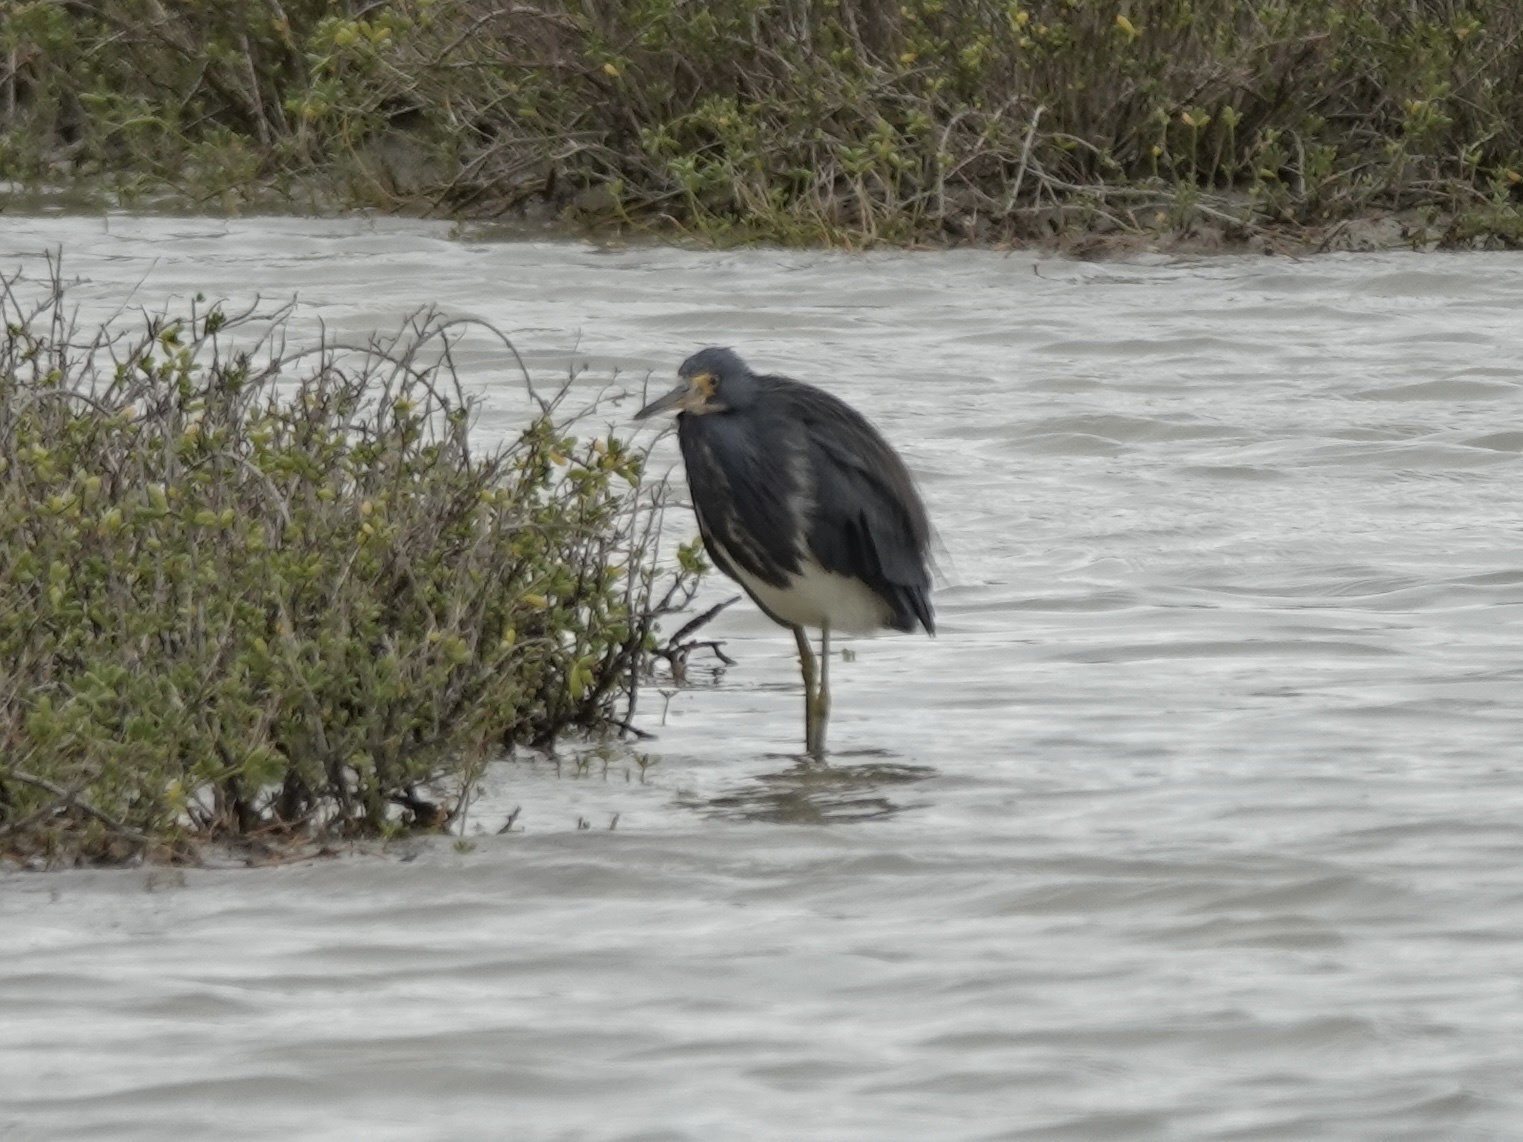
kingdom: Animalia
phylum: Chordata
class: Aves
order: Pelecaniformes
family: Ardeidae
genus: Egretta
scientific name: Egretta tricolor
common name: Tricolored heron
